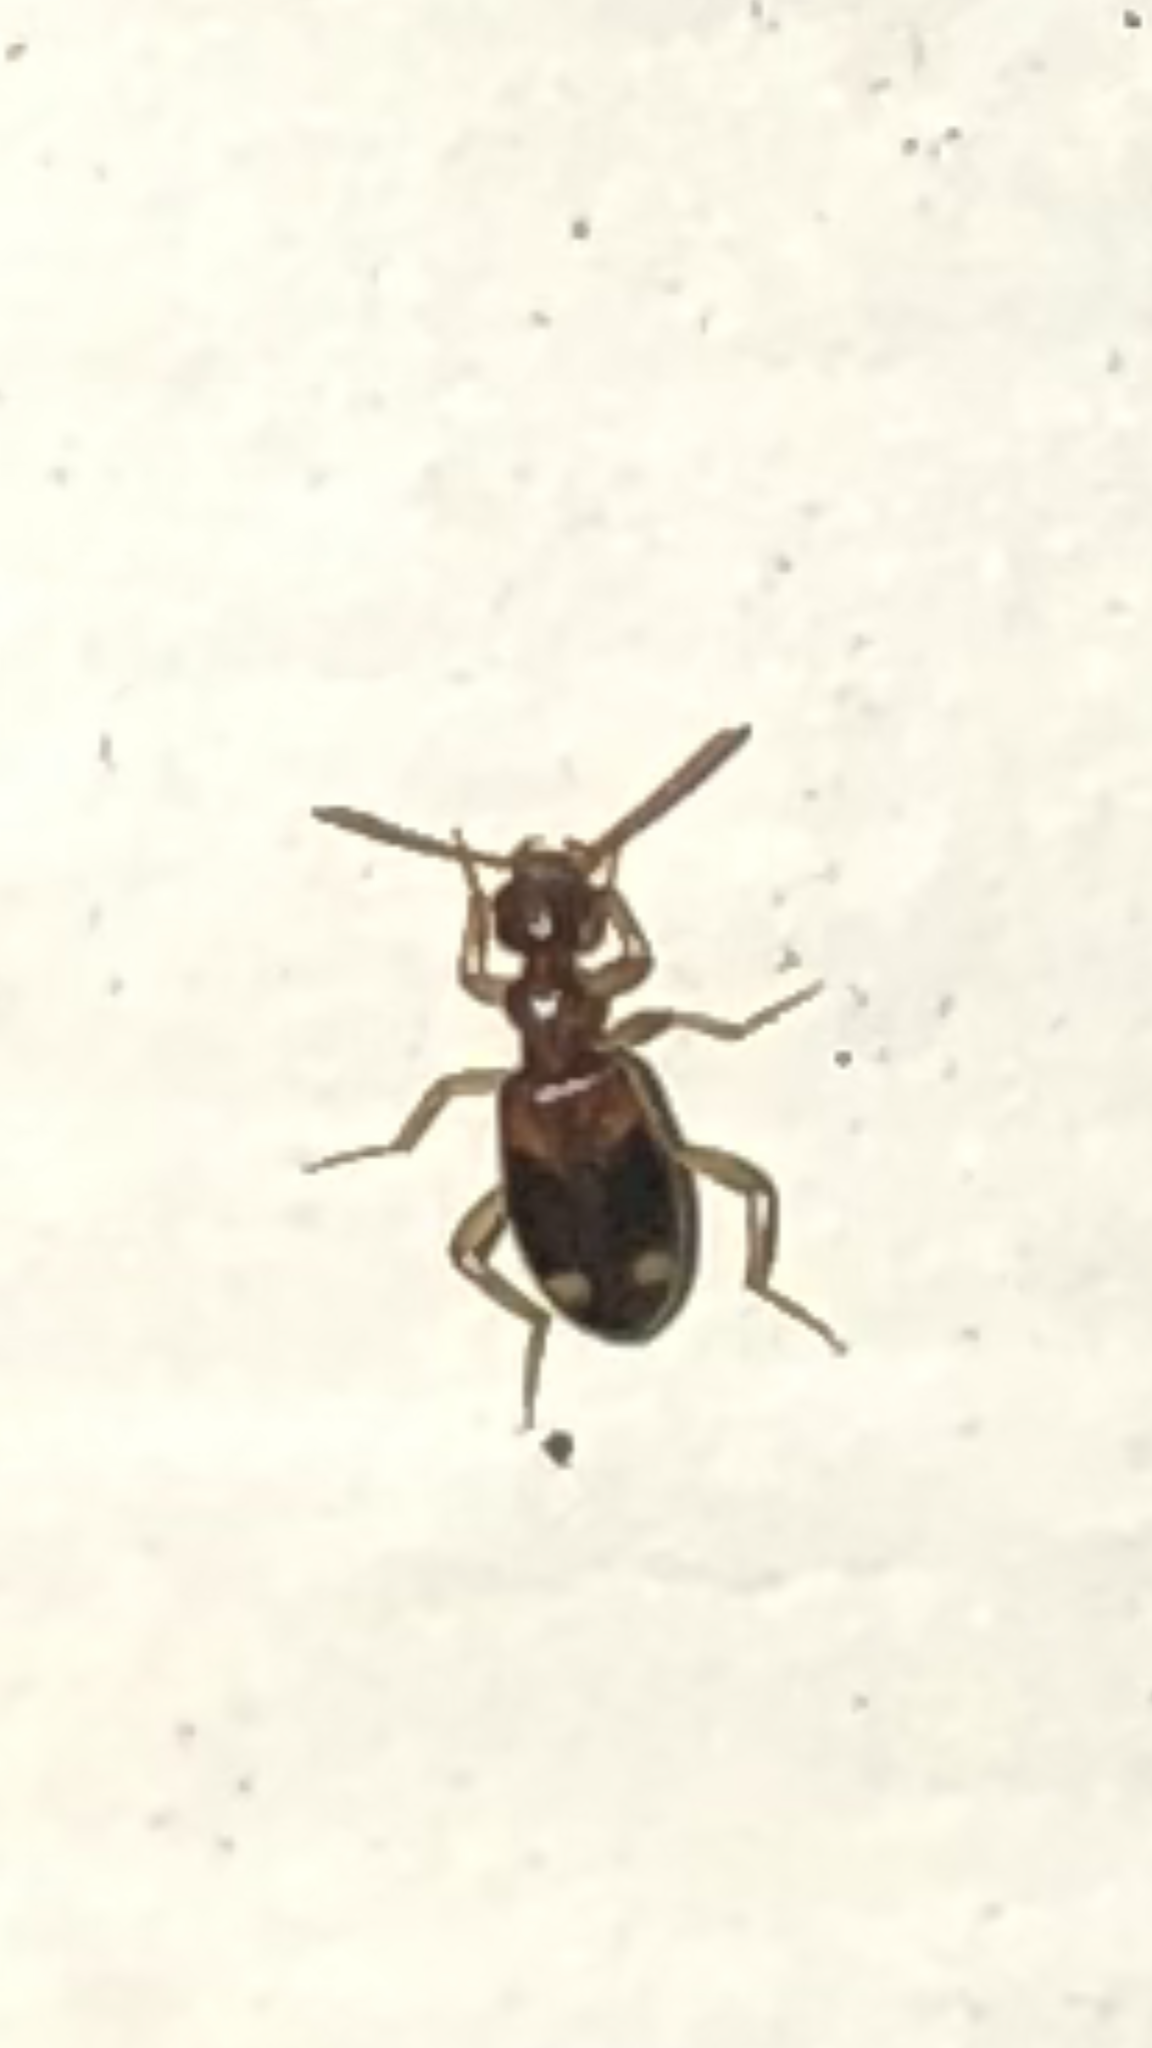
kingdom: Animalia
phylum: Arthropoda
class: Insecta
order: Coleoptera
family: Anthicidae
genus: Stricticollis
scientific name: Stricticollis tobias
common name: Two-dotted ant-like flower beetle
